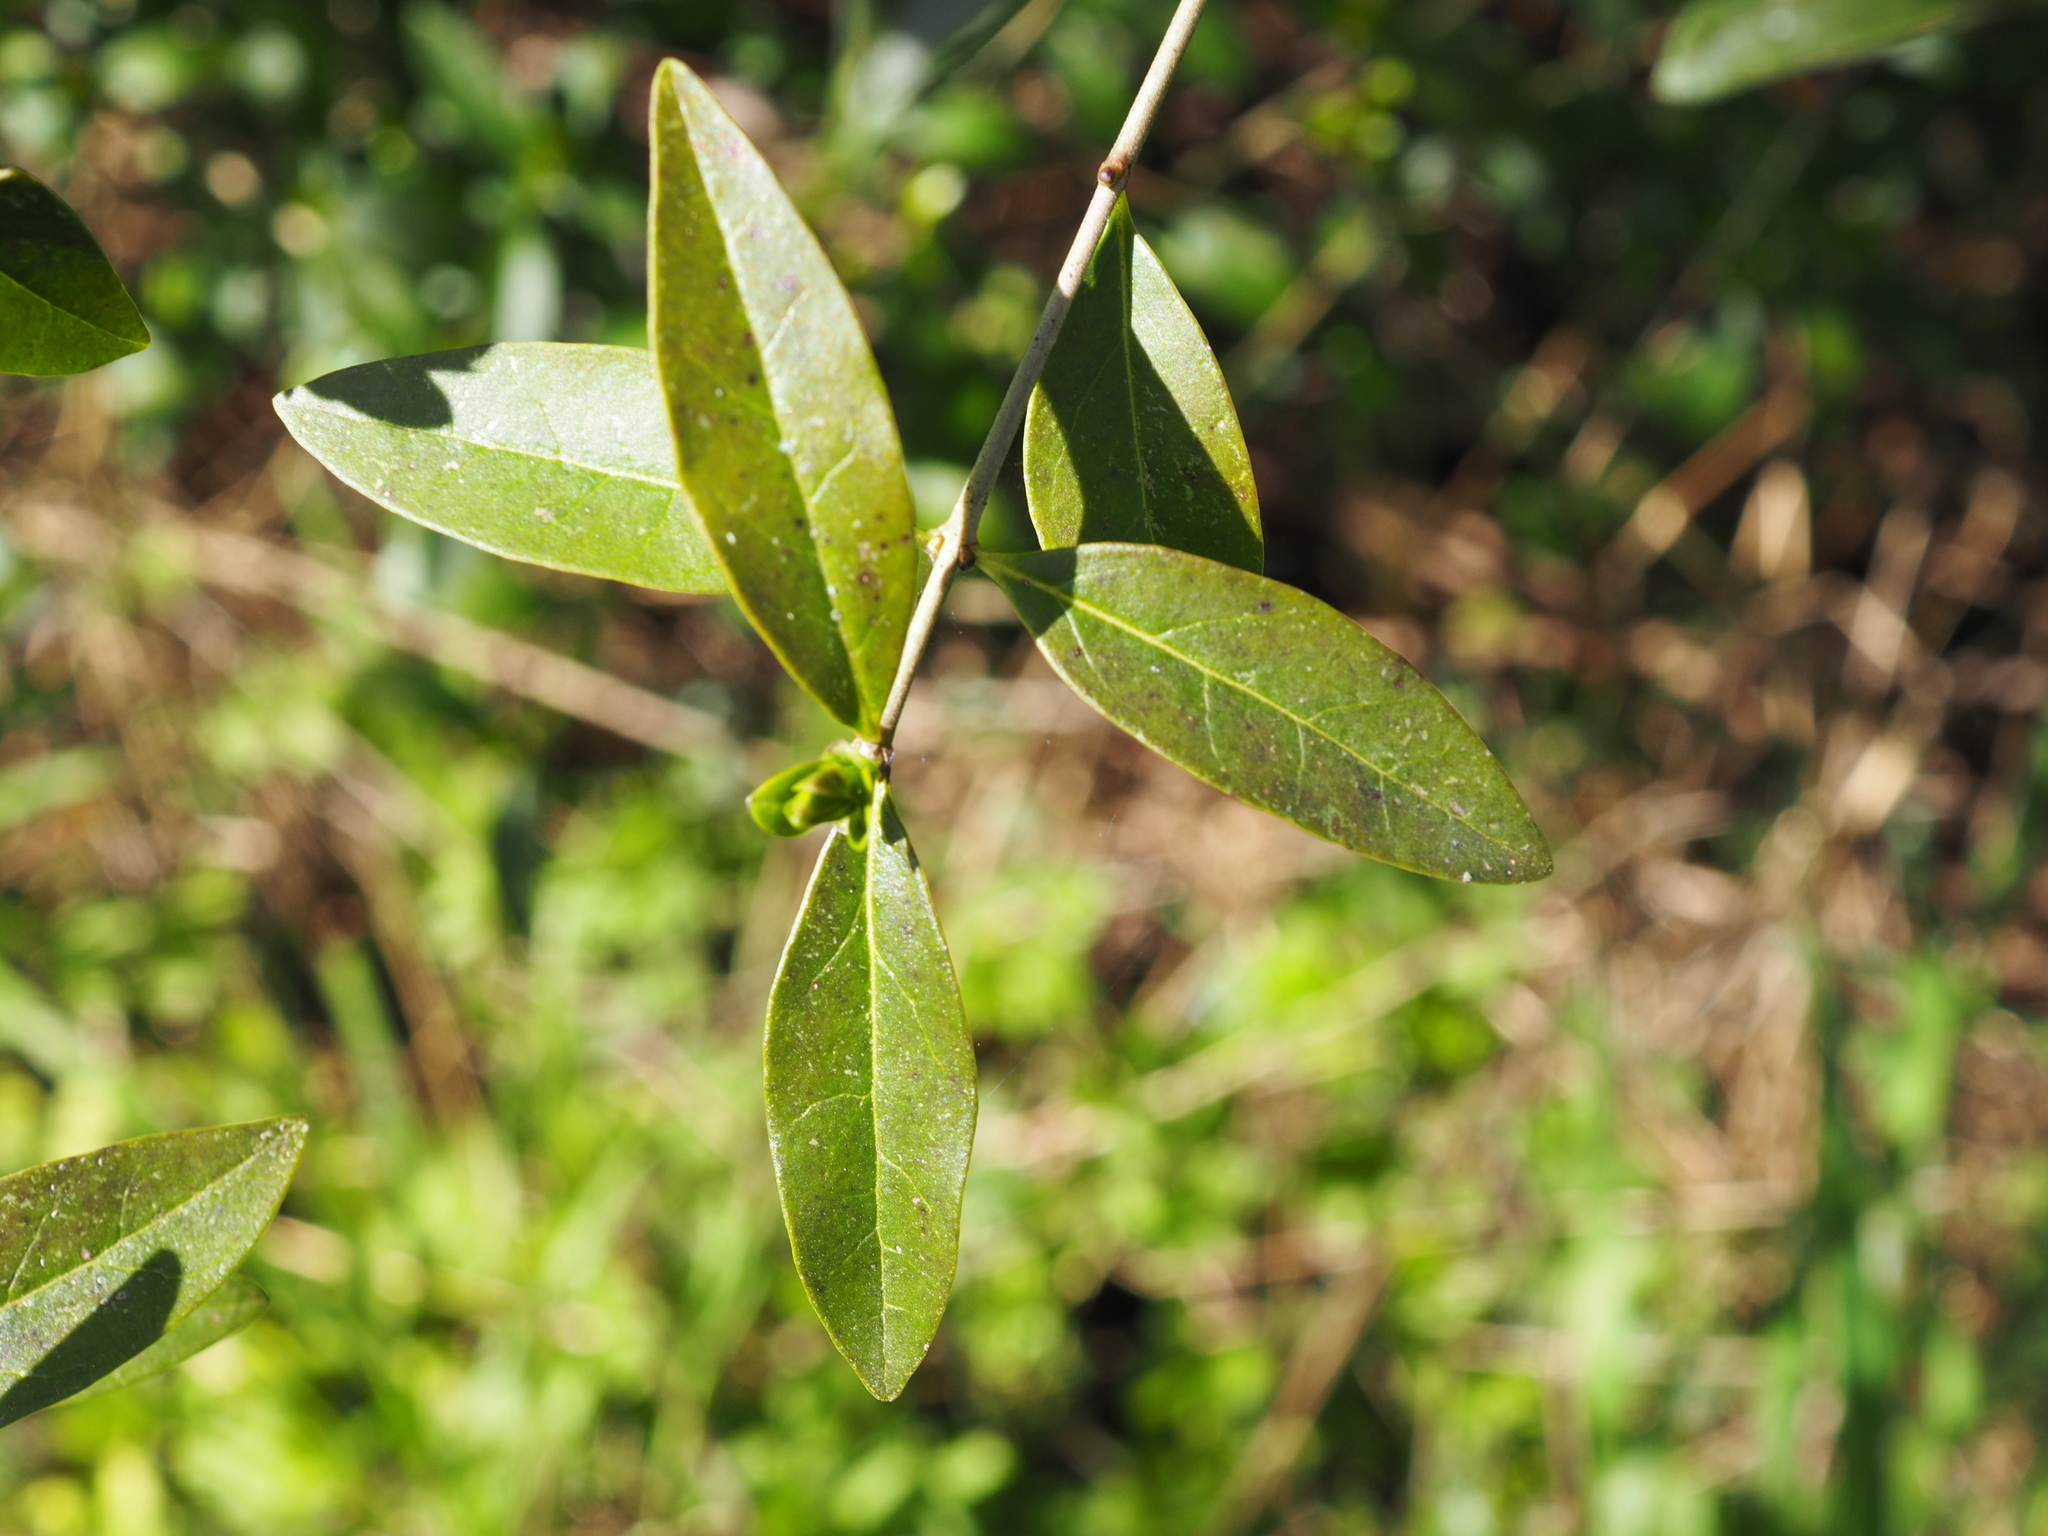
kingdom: Plantae
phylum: Tracheophyta
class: Magnoliopsida
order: Lamiales
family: Oleaceae
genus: Ligustrum
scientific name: Ligustrum vulgare
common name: Wild privet
